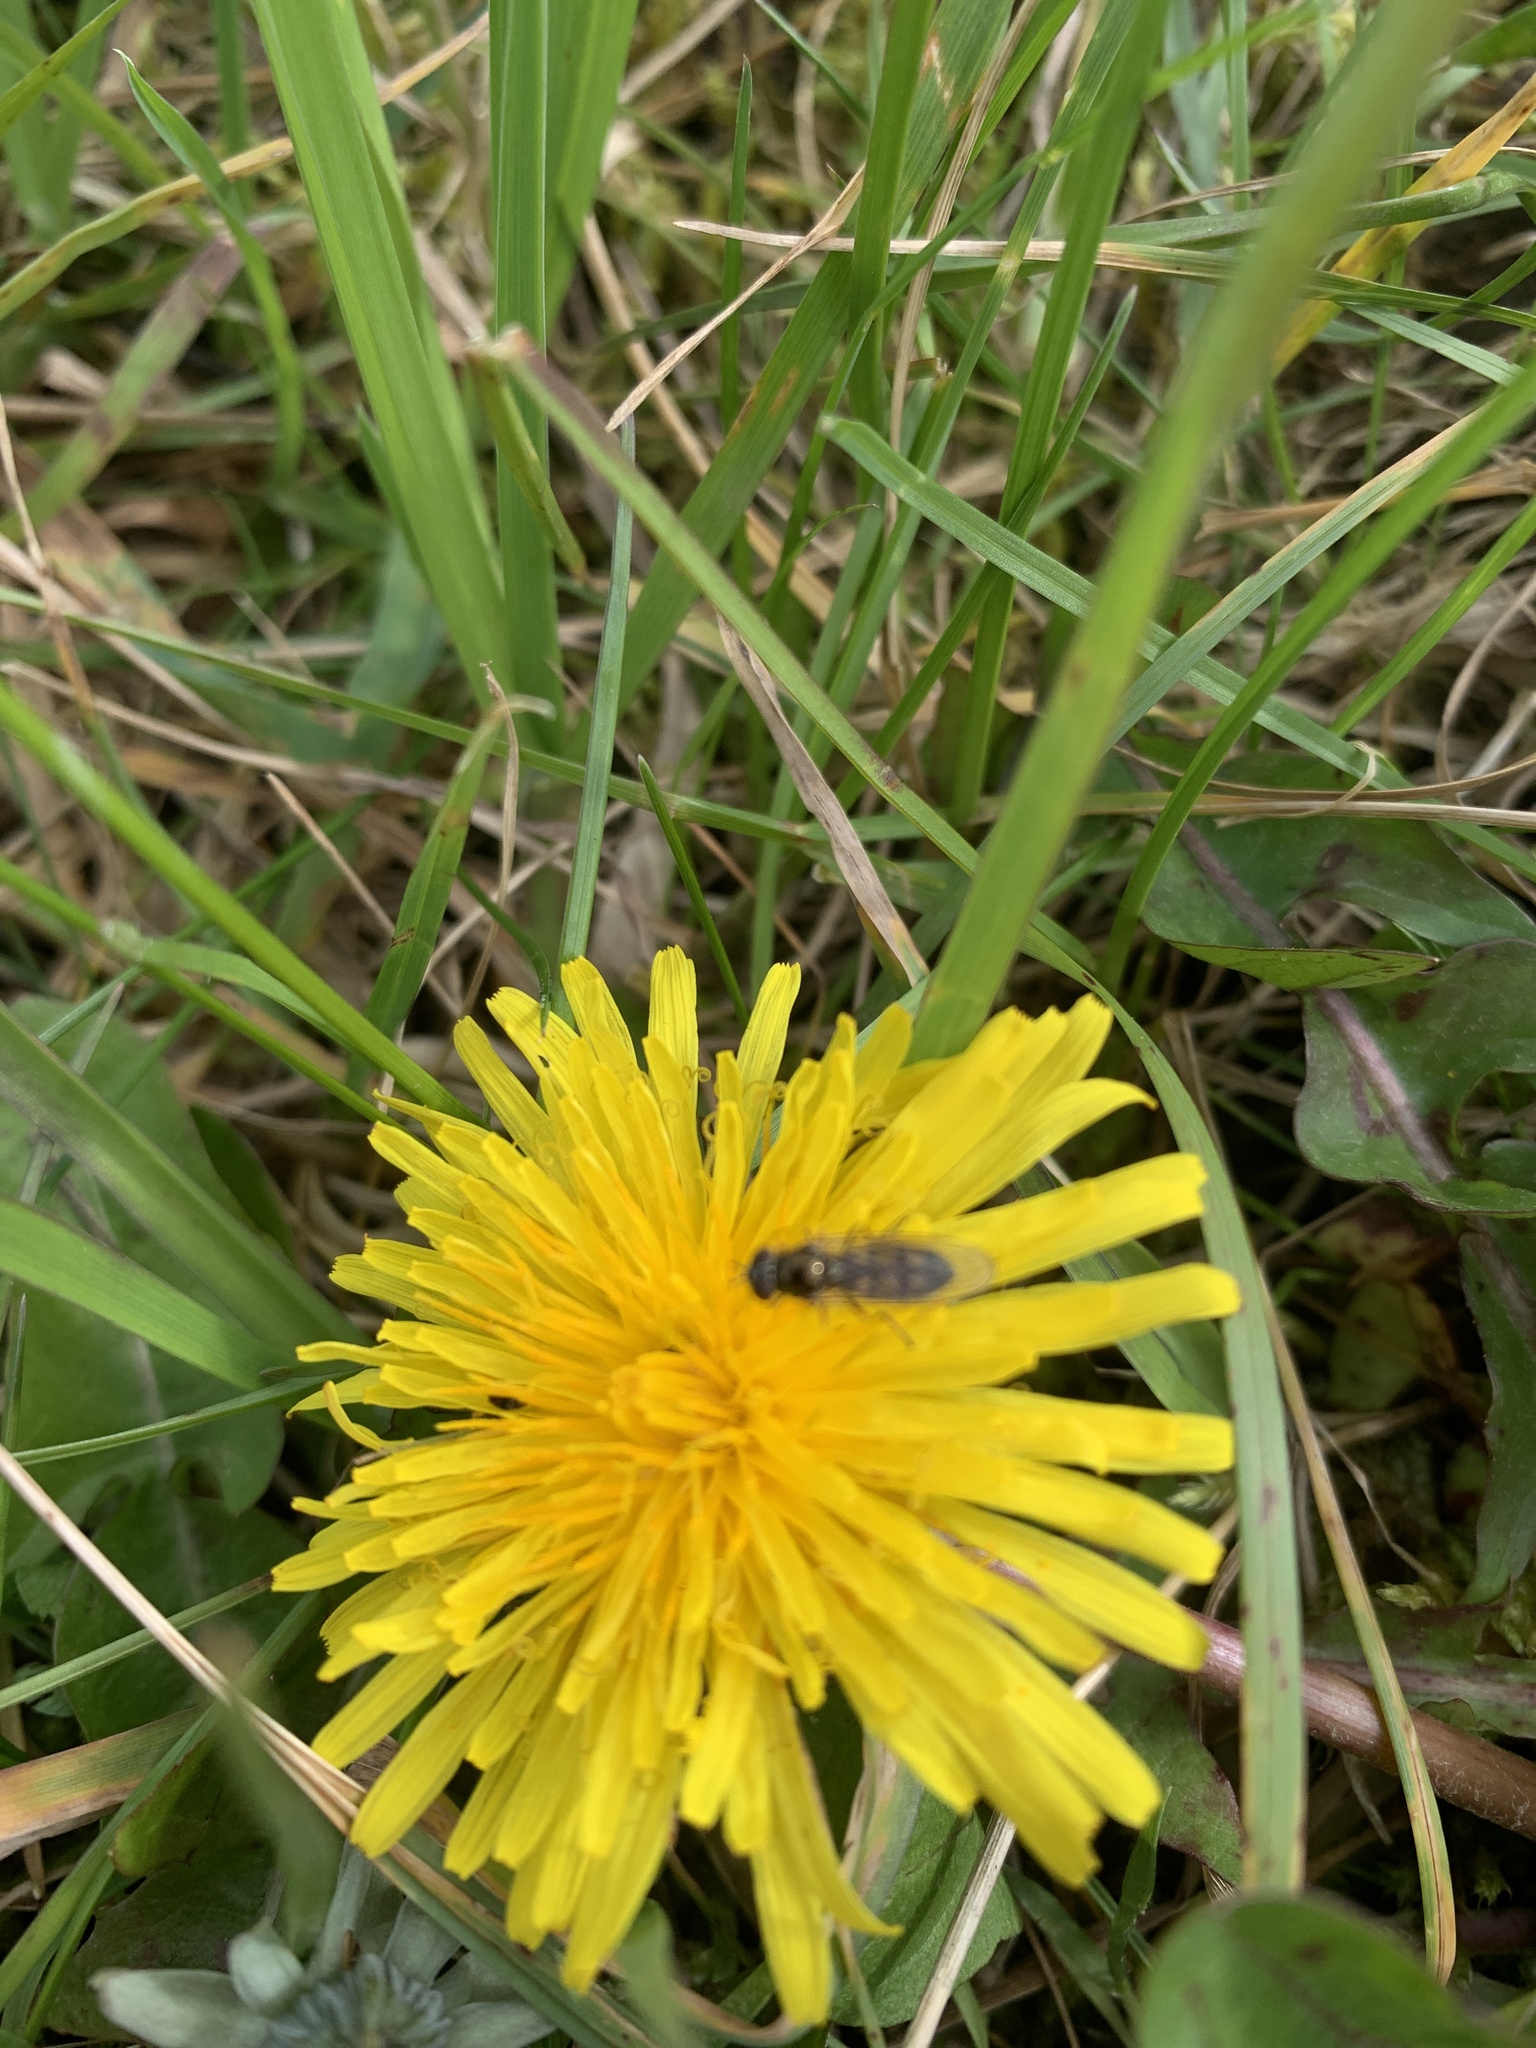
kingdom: Animalia
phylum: Arthropoda
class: Insecta
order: Diptera
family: Syrphidae
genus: Melanostoma
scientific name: Melanostoma
